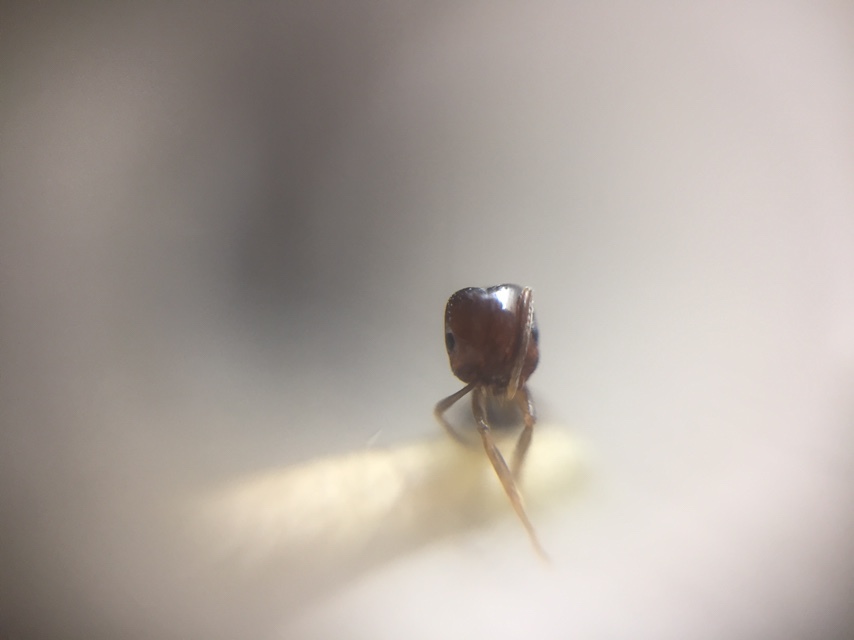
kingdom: Animalia
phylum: Arthropoda
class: Insecta
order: Hymenoptera
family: Formicidae
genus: Trichomyrmex
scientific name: Trichomyrmex
